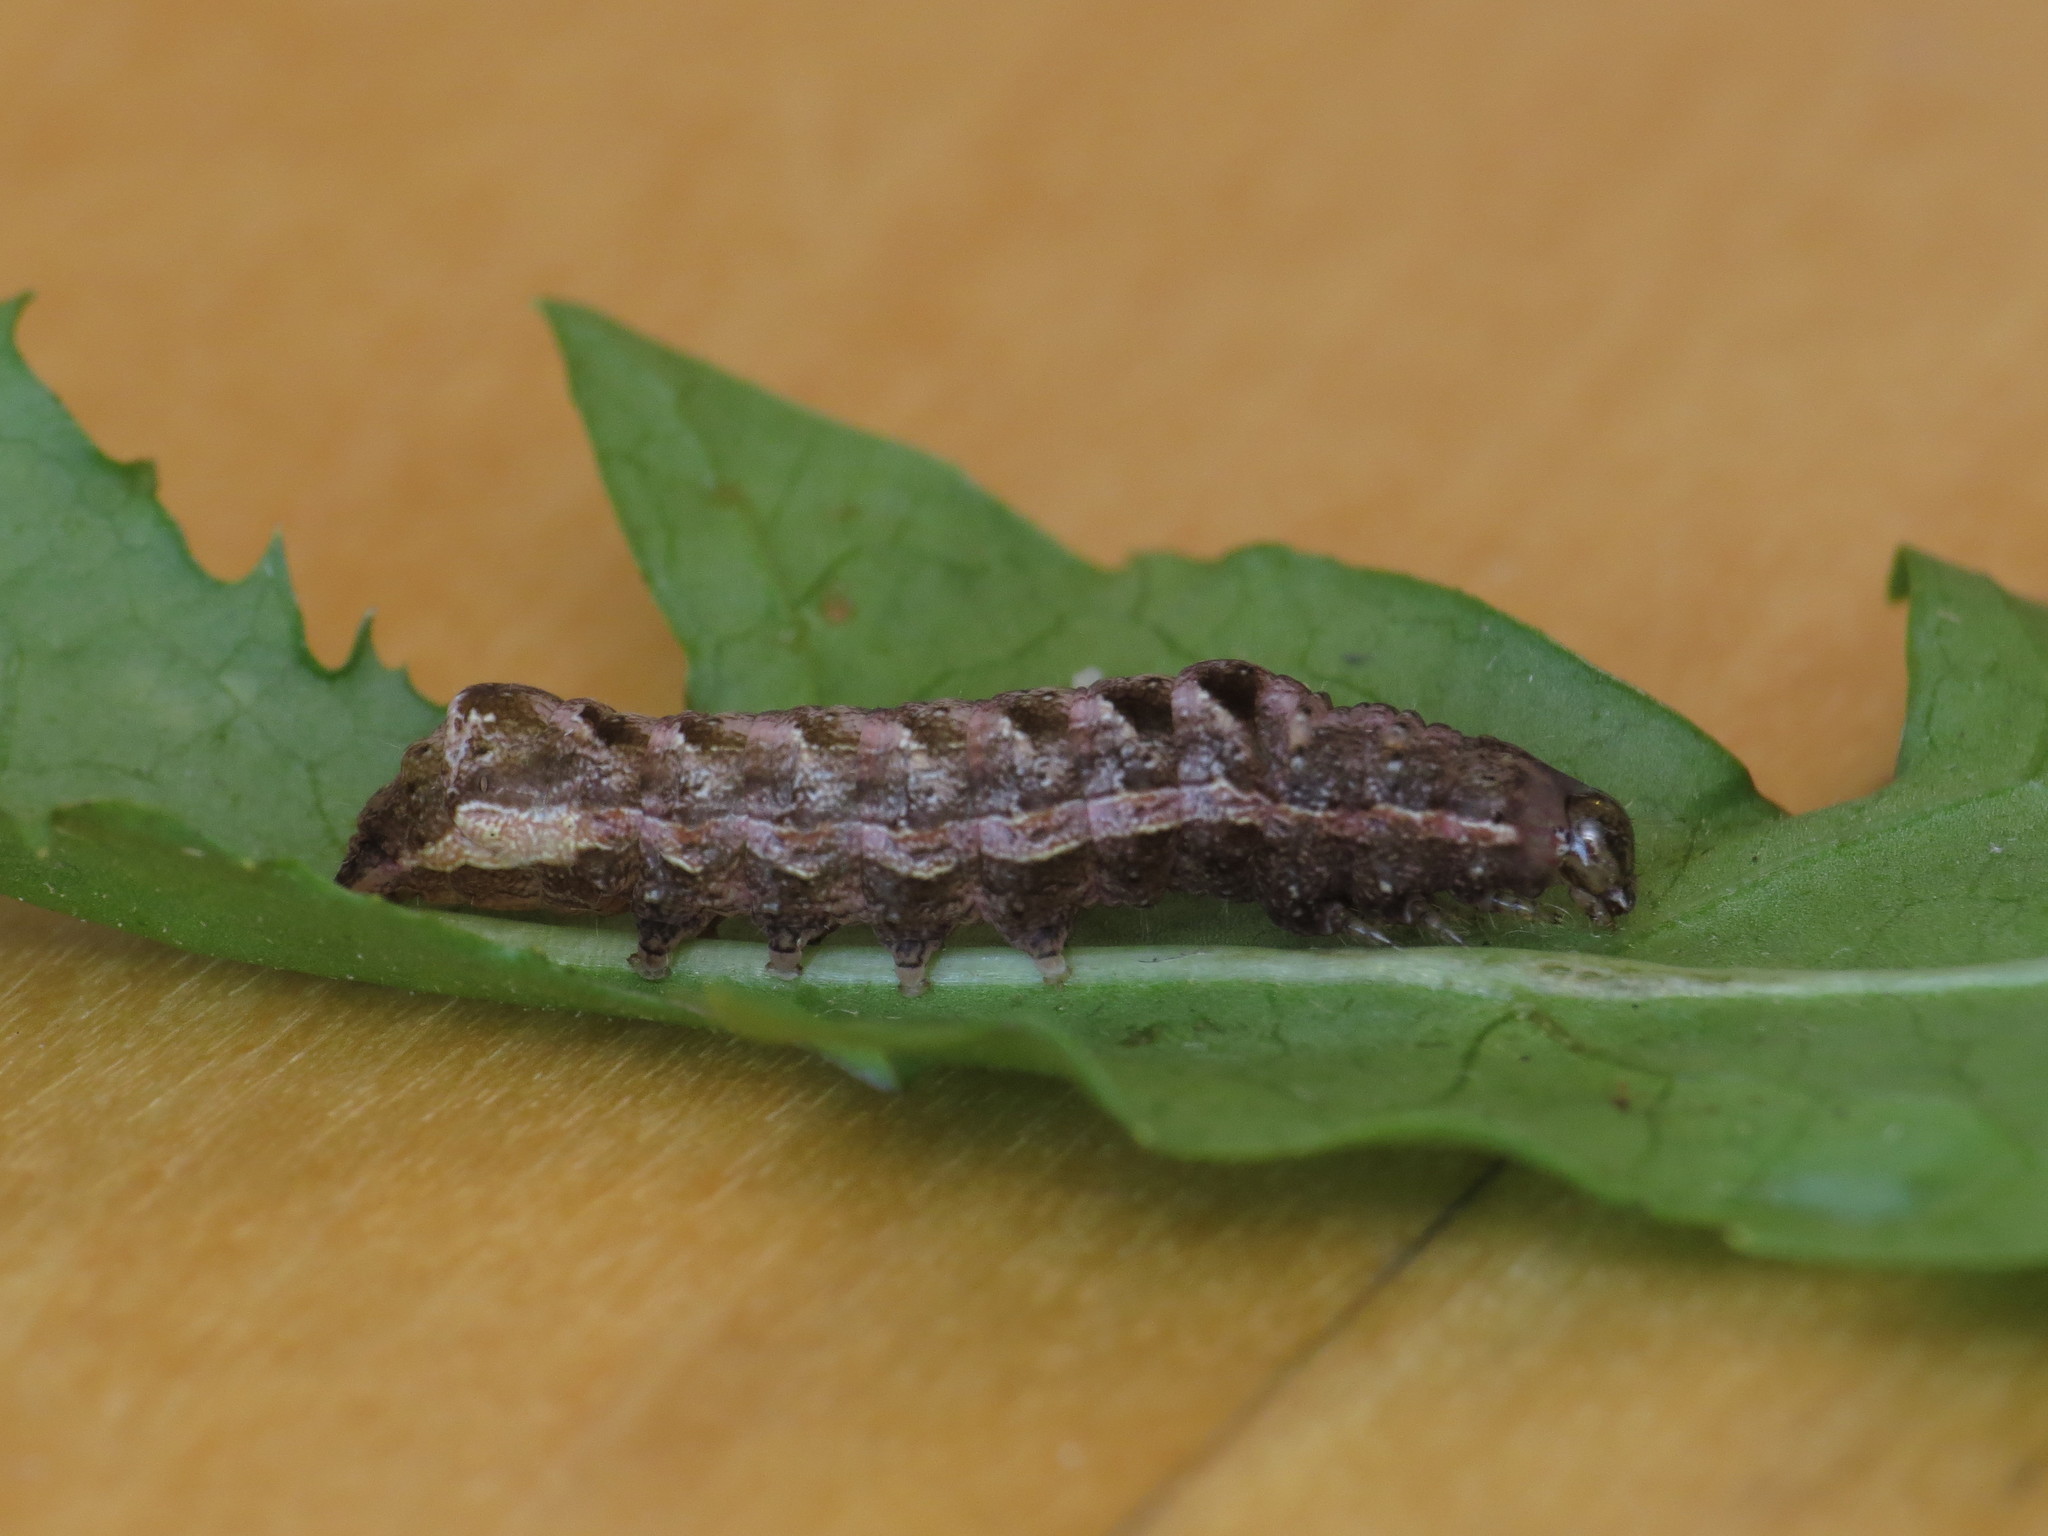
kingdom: Animalia
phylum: Arthropoda
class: Insecta
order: Lepidoptera
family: Noctuidae
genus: Axylia
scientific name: Axylia putris
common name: Flame
